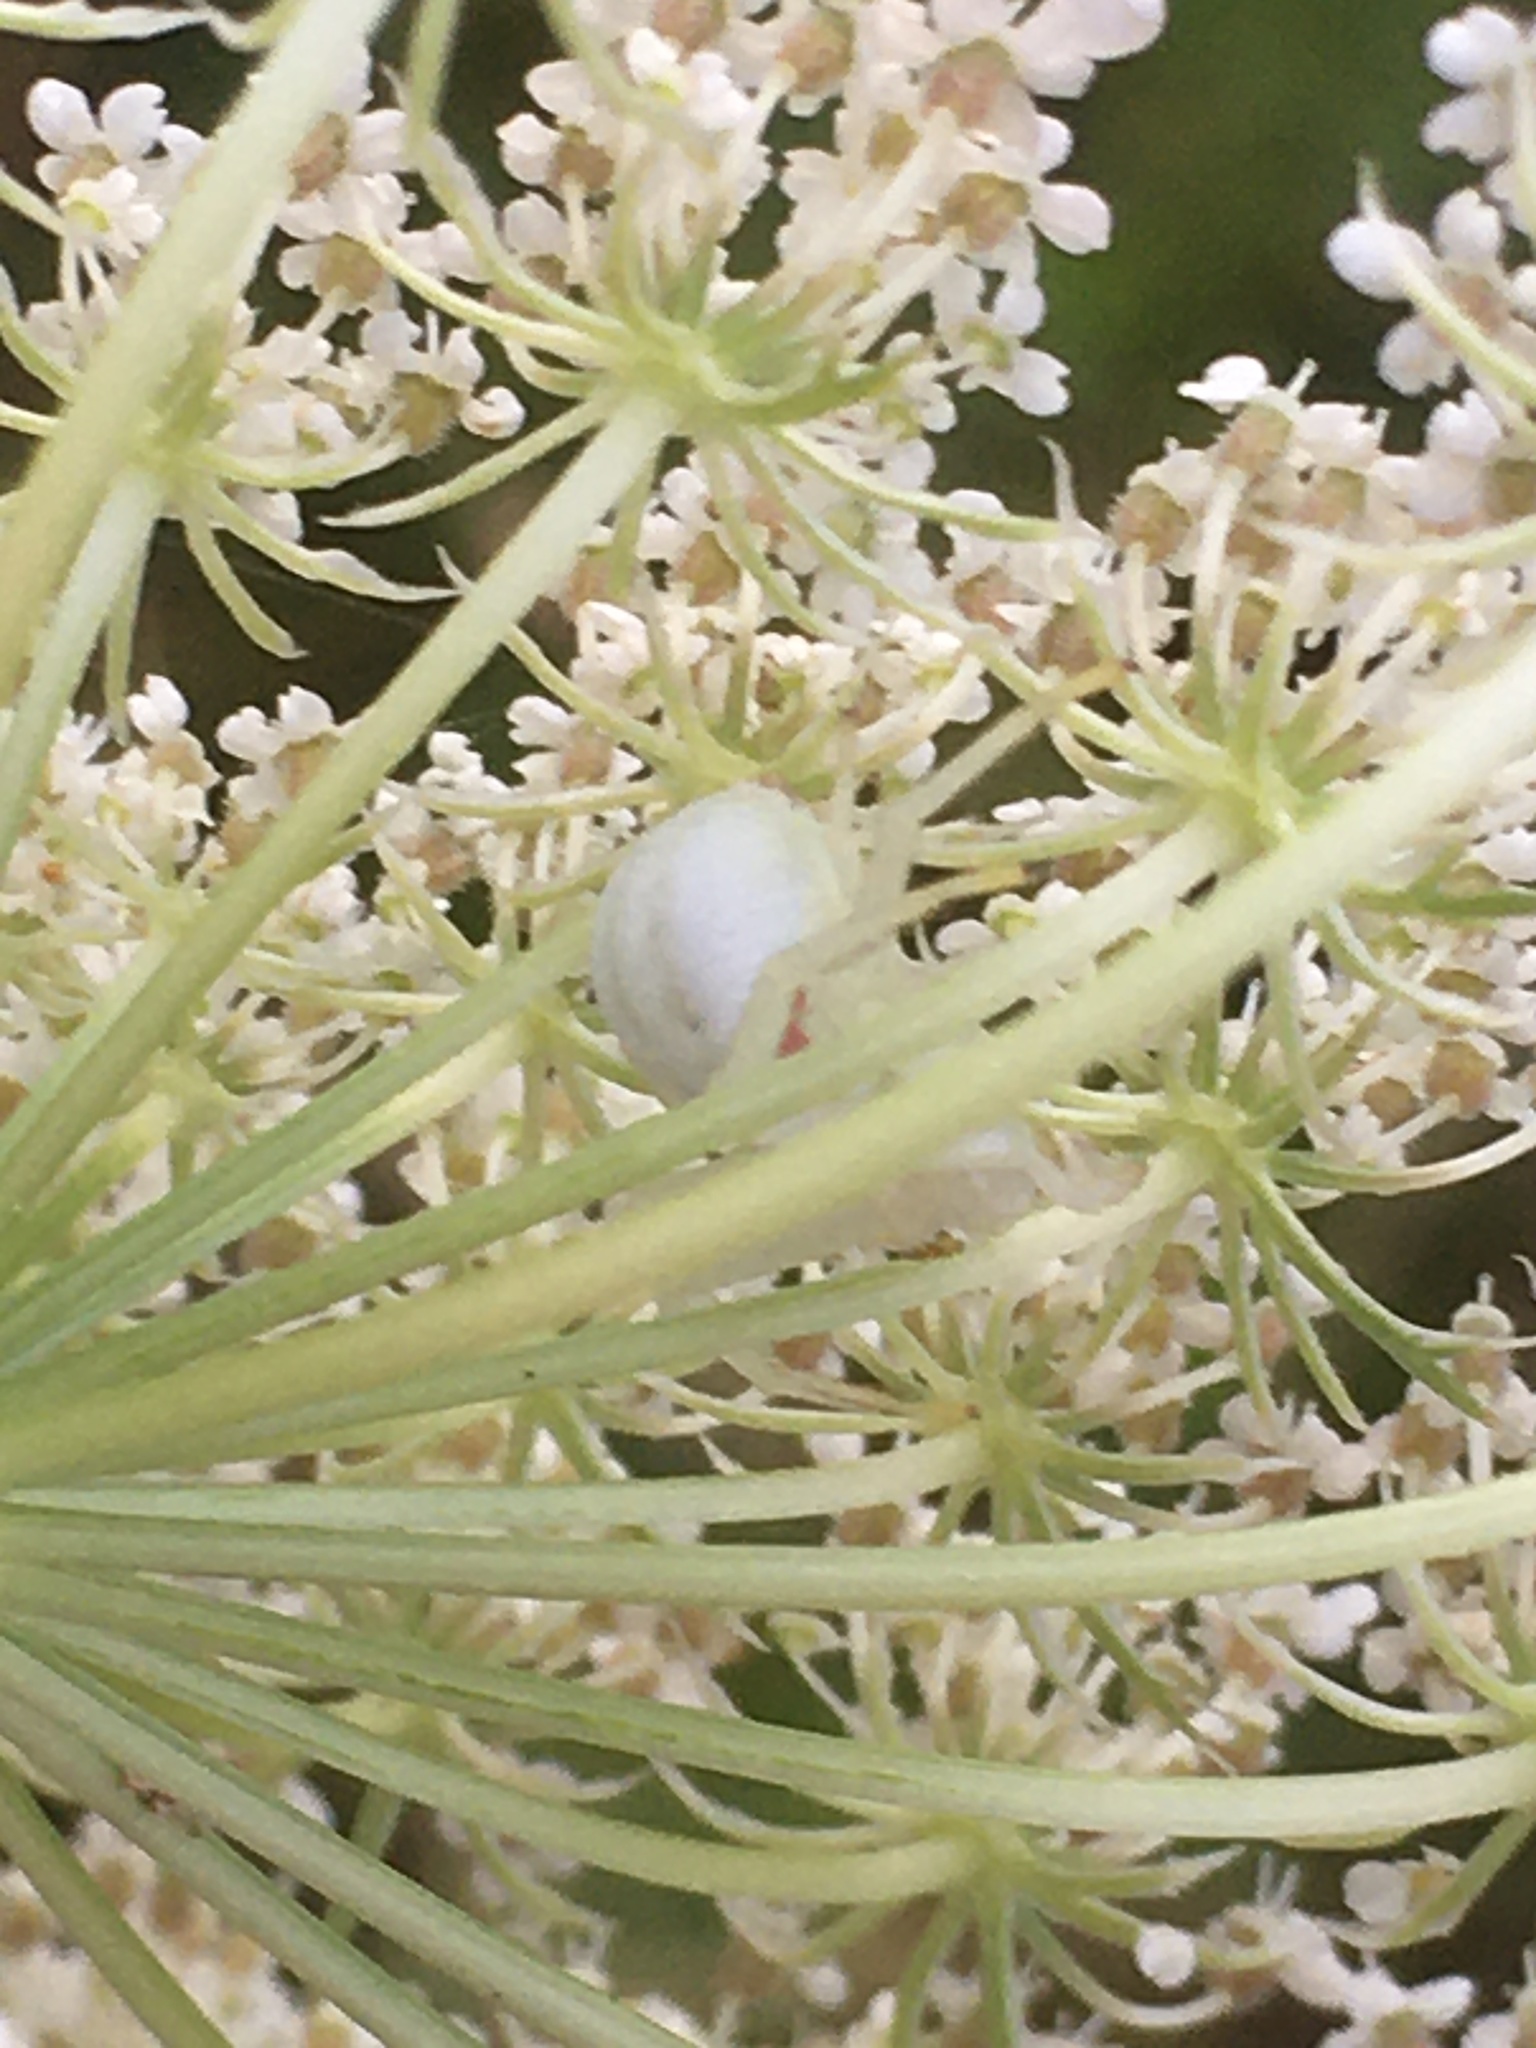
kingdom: Animalia
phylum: Arthropoda
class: Arachnida
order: Araneae
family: Thomisidae
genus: Misumena
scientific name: Misumena vatia
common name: Goldenrod crab spider
